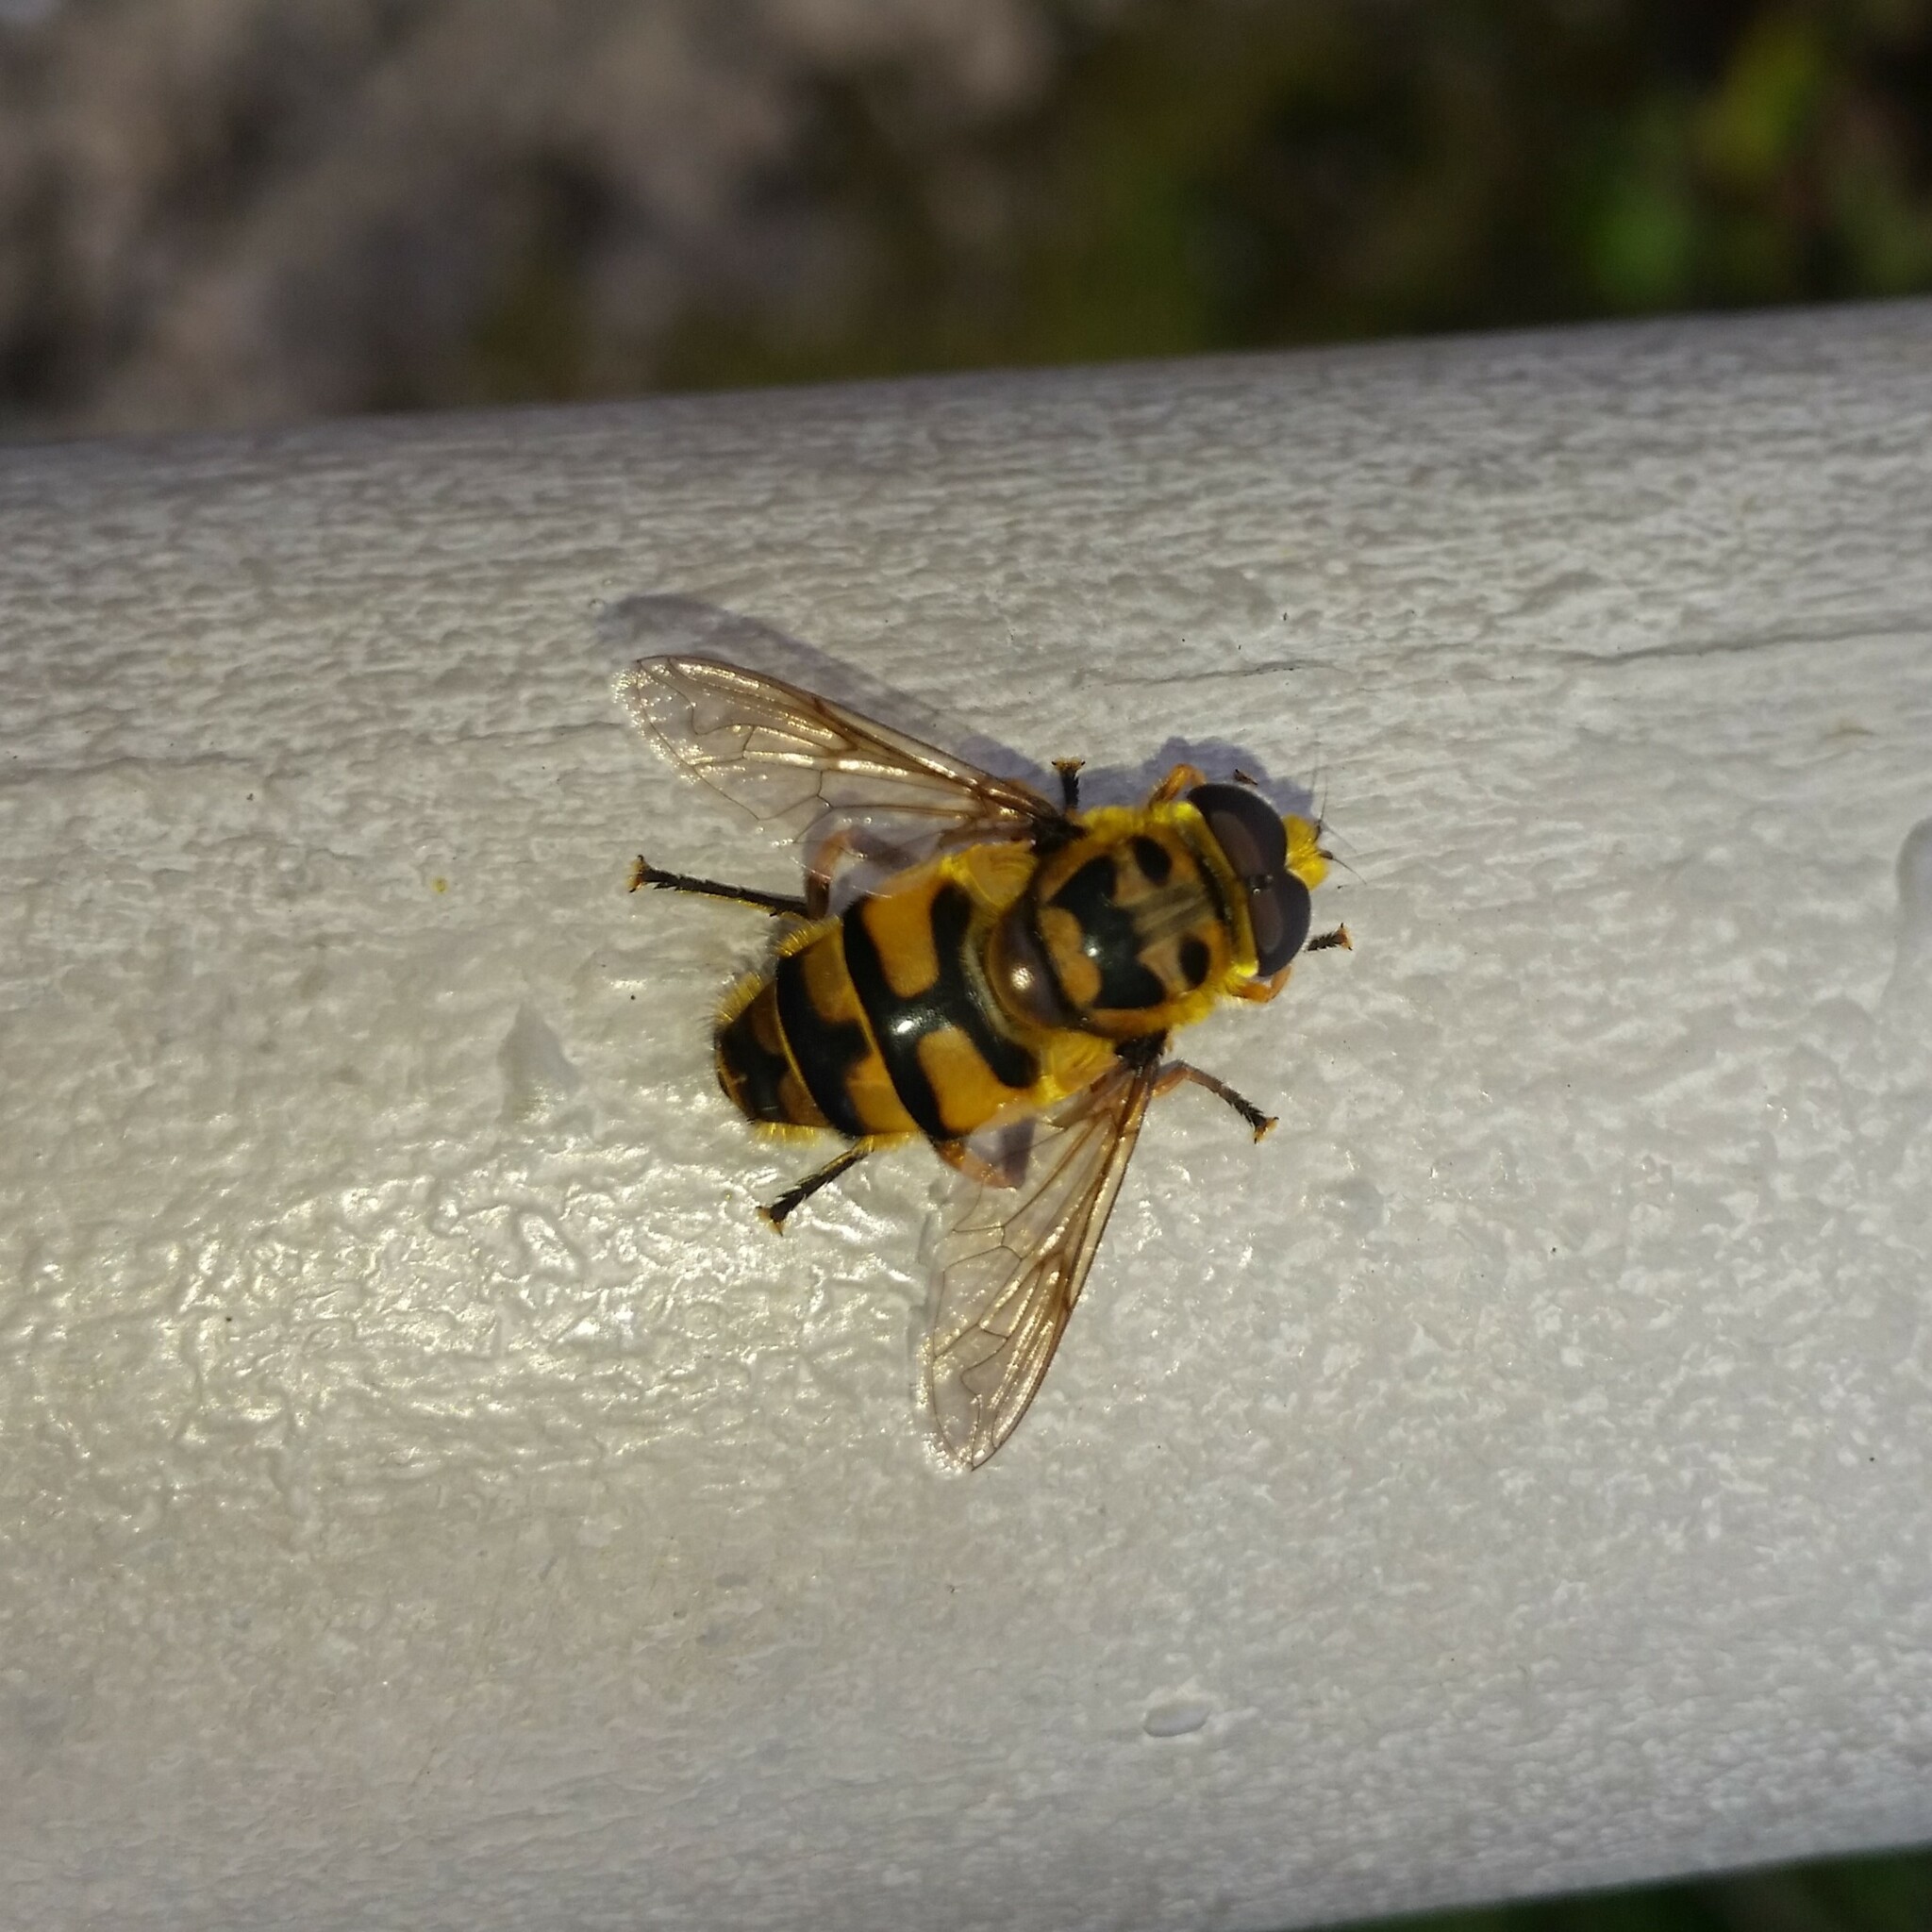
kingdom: Animalia
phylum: Arthropoda
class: Insecta
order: Diptera
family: Syrphidae
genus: Myathropa
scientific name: Myathropa florea
